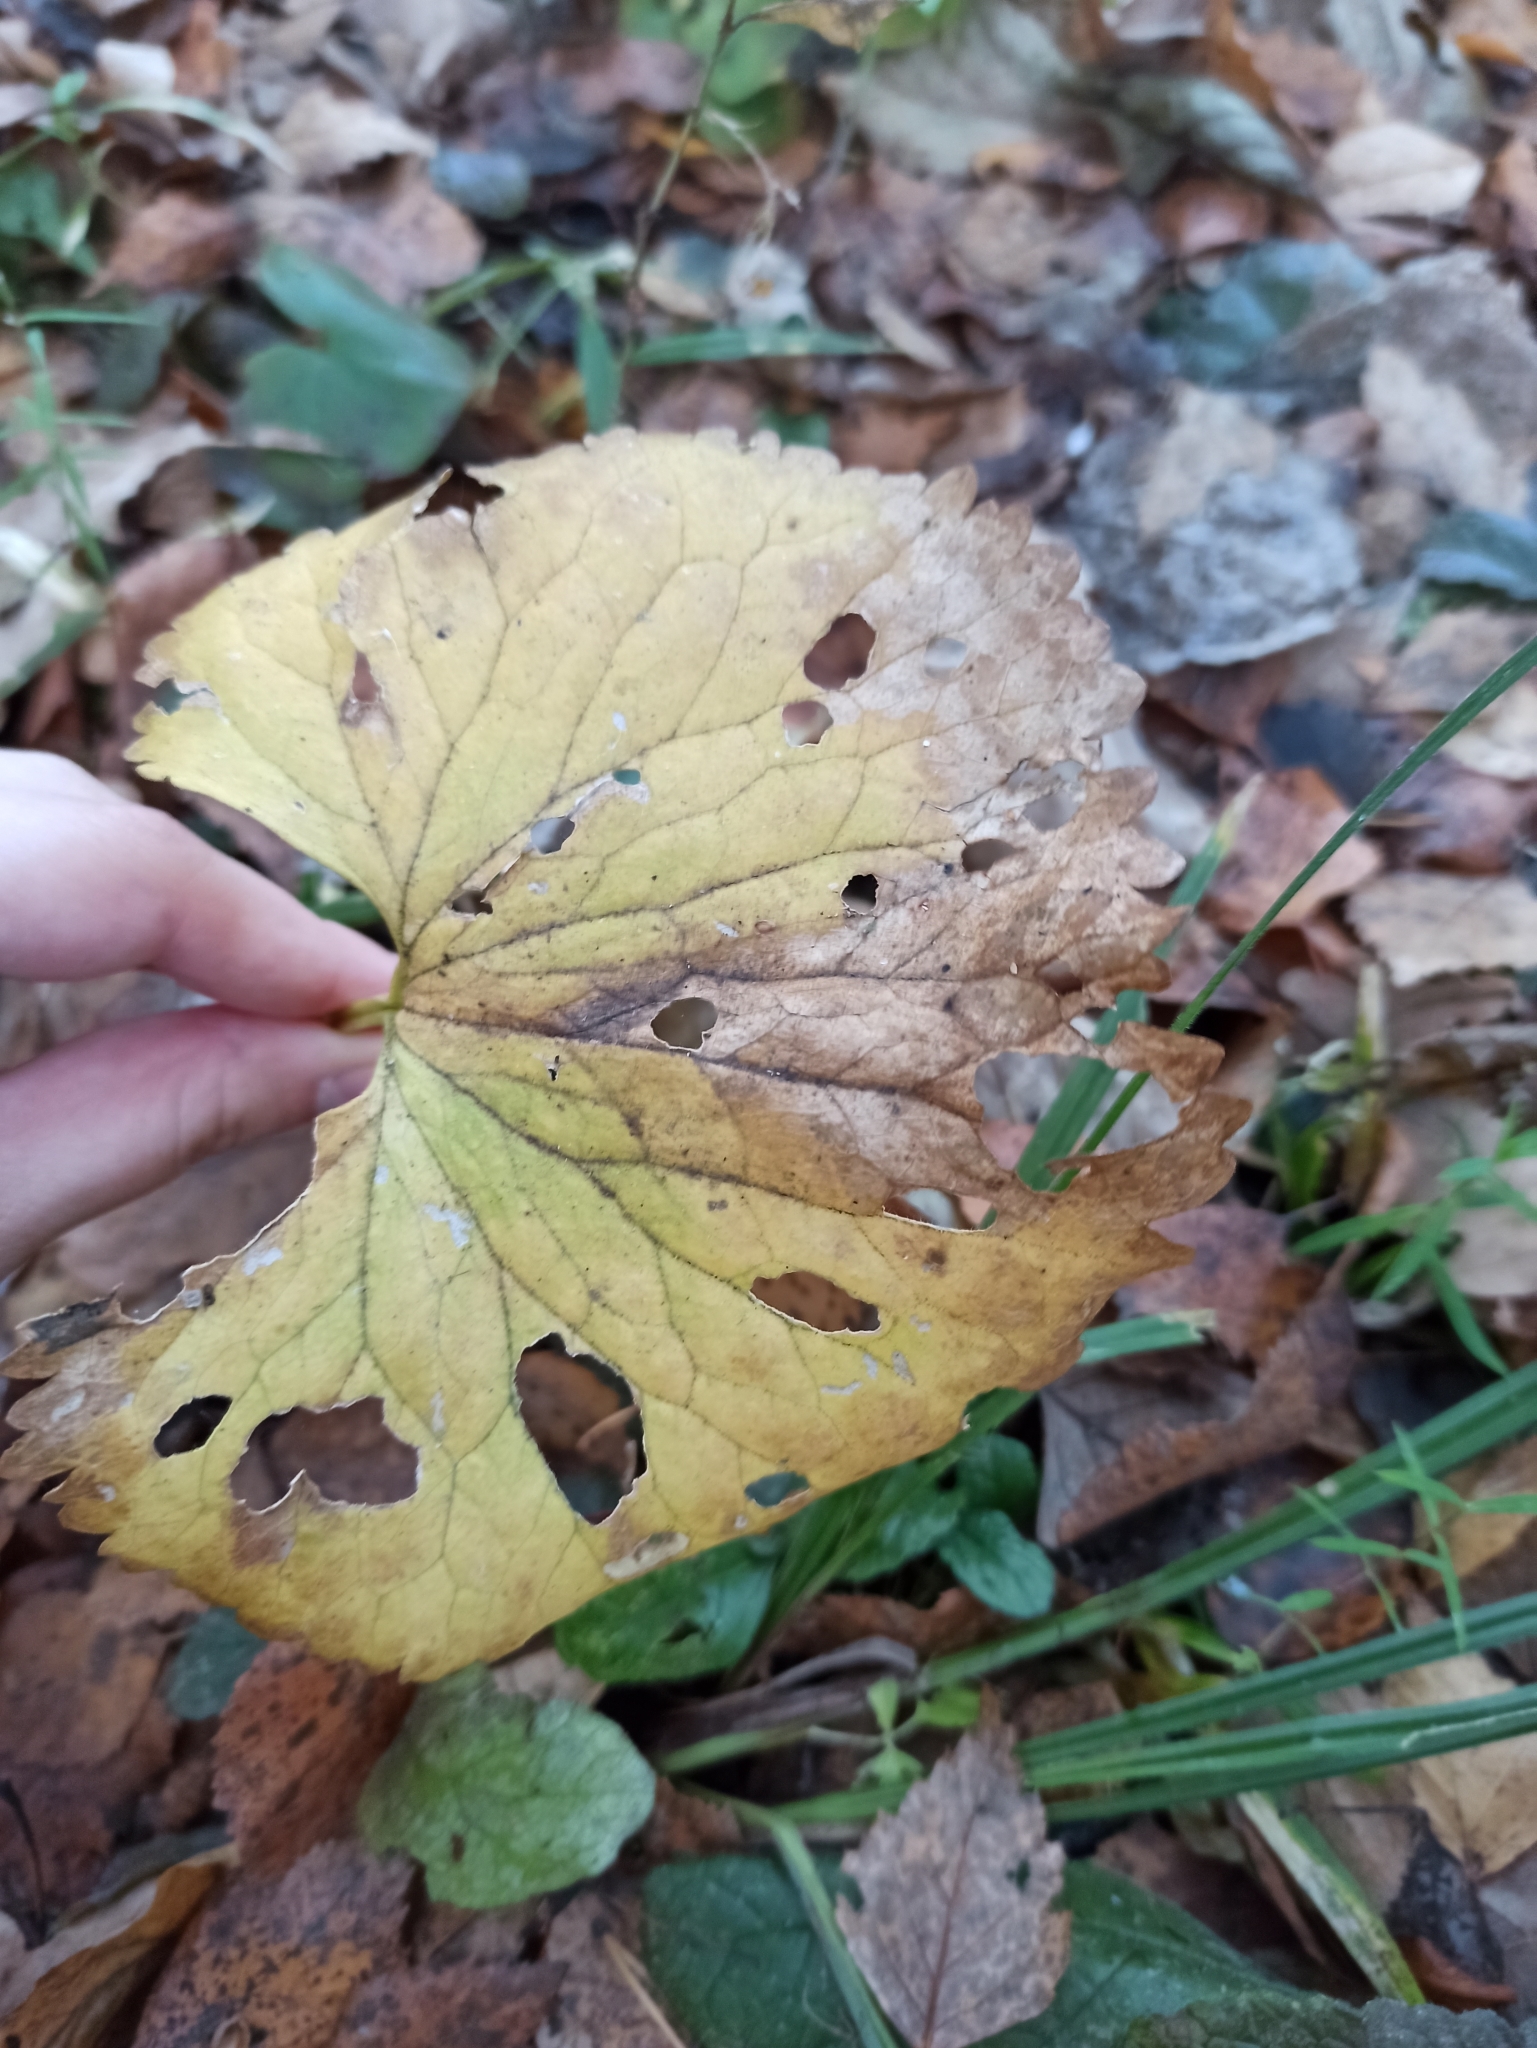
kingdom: Plantae
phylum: Tracheophyta
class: Magnoliopsida
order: Ranunculales
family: Ranunculaceae
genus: Ranunculus
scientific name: Ranunculus cassubicus
